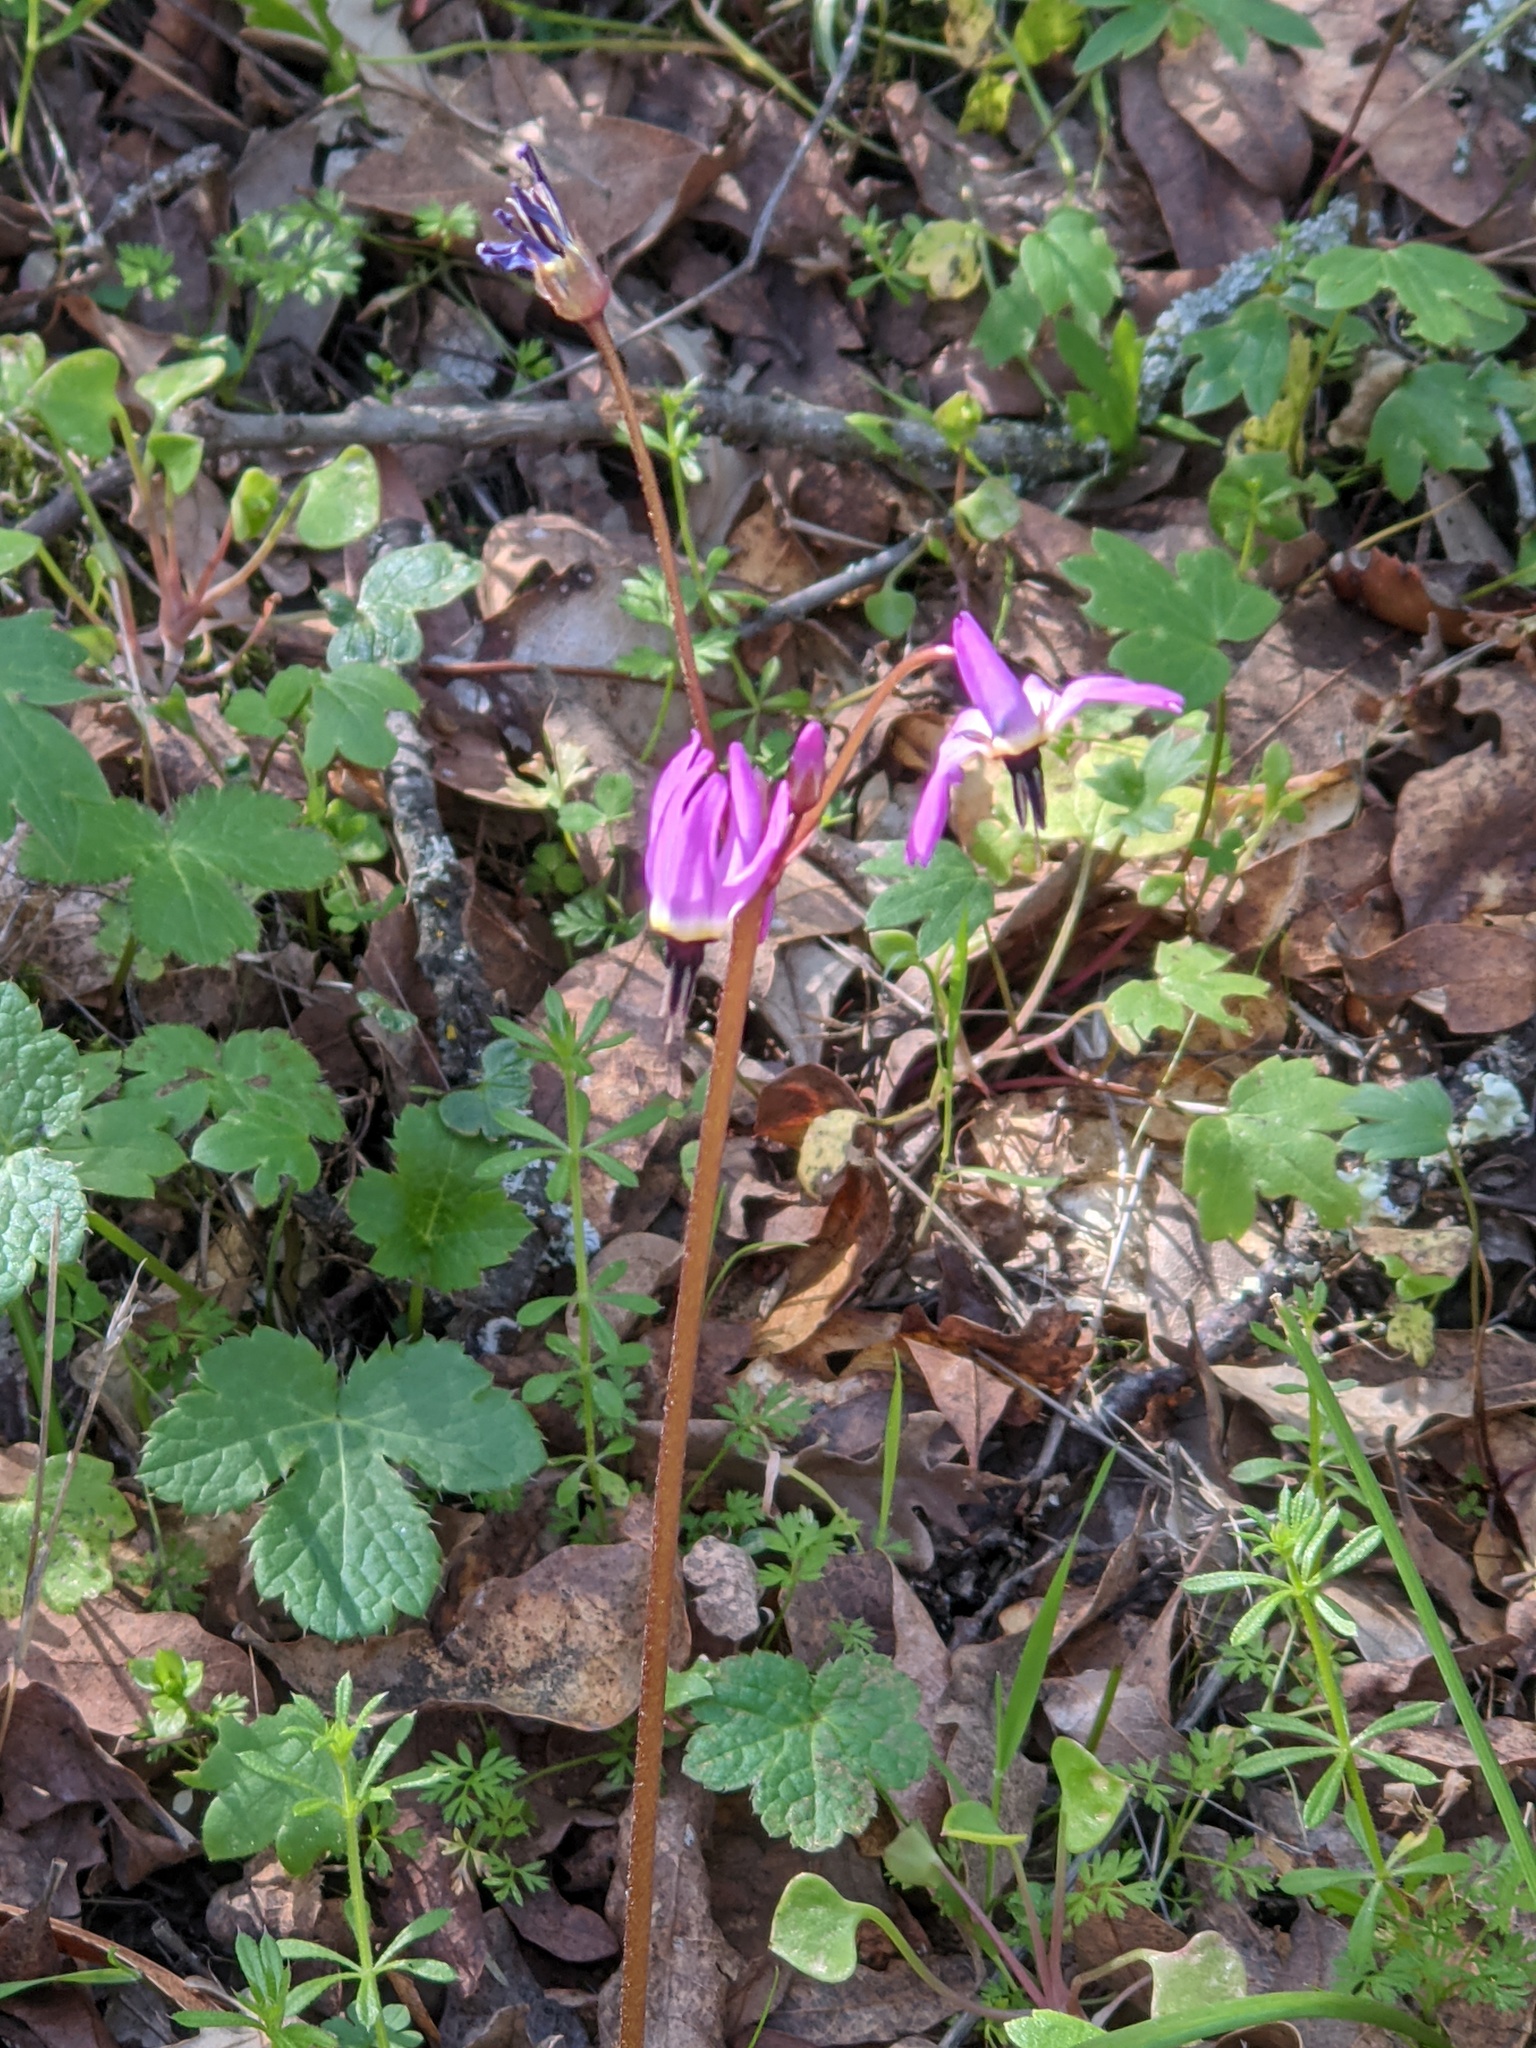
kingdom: Plantae
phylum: Tracheophyta
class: Magnoliopsida
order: Ericales
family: Primulaceae
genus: Dodecatheon
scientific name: Dodecatheon hendersonii
